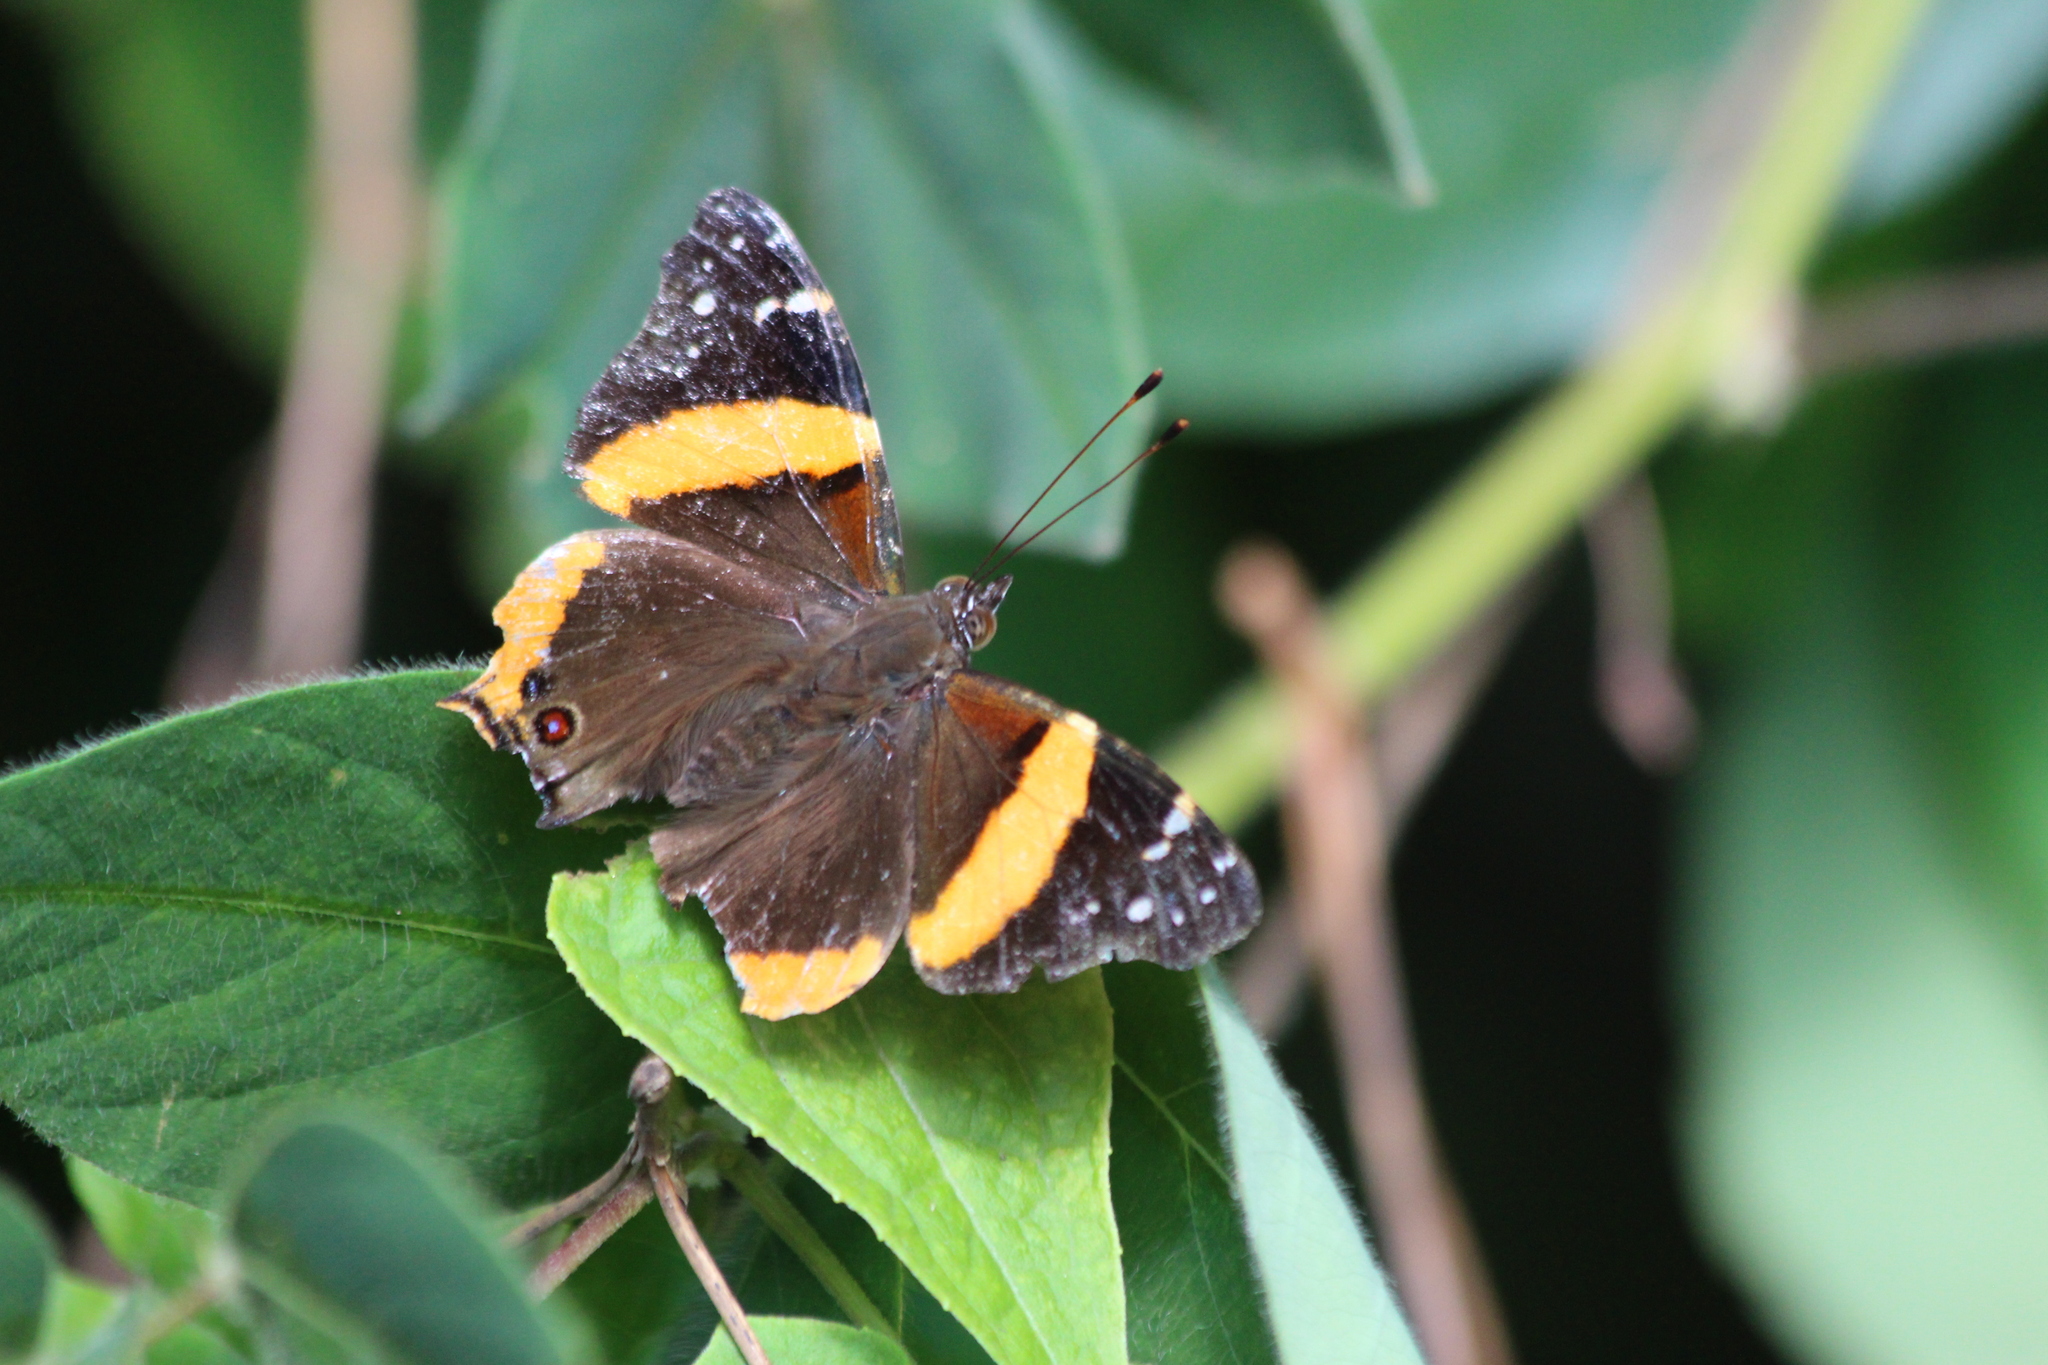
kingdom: Animalia
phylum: Arthropoda
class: Insecta
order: Lepidoptera
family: Nymphalidae
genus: Antanartia
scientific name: Antanartia dimorphica
